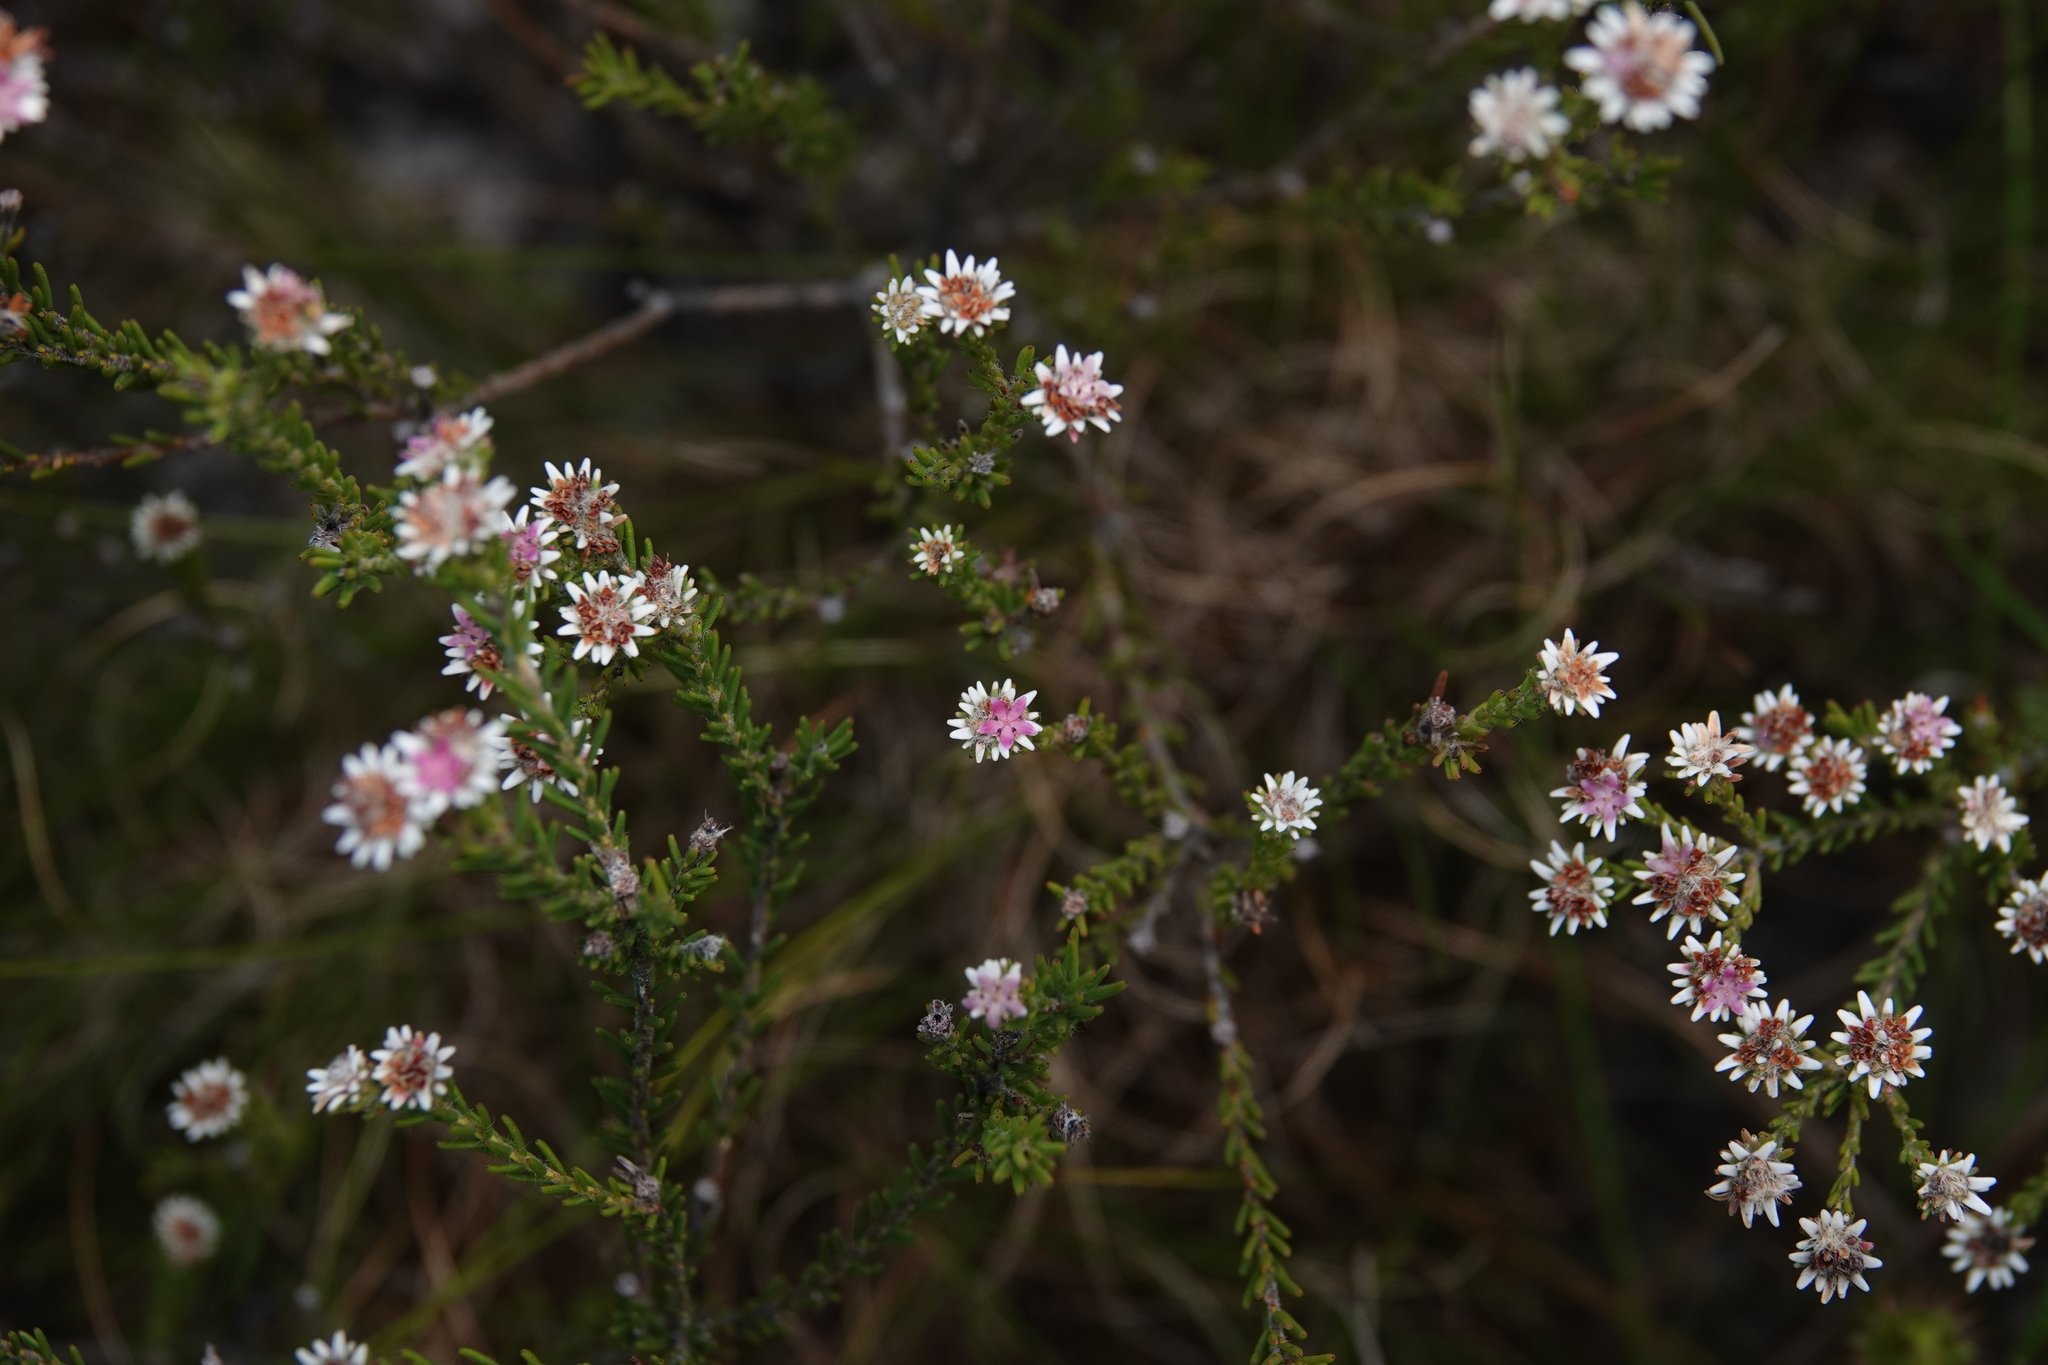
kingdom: Plantae
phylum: Tracheophyta
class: Magnoliopsida
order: Bruniales
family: Bruniaceae
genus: Staavia
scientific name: Staavia radiata
